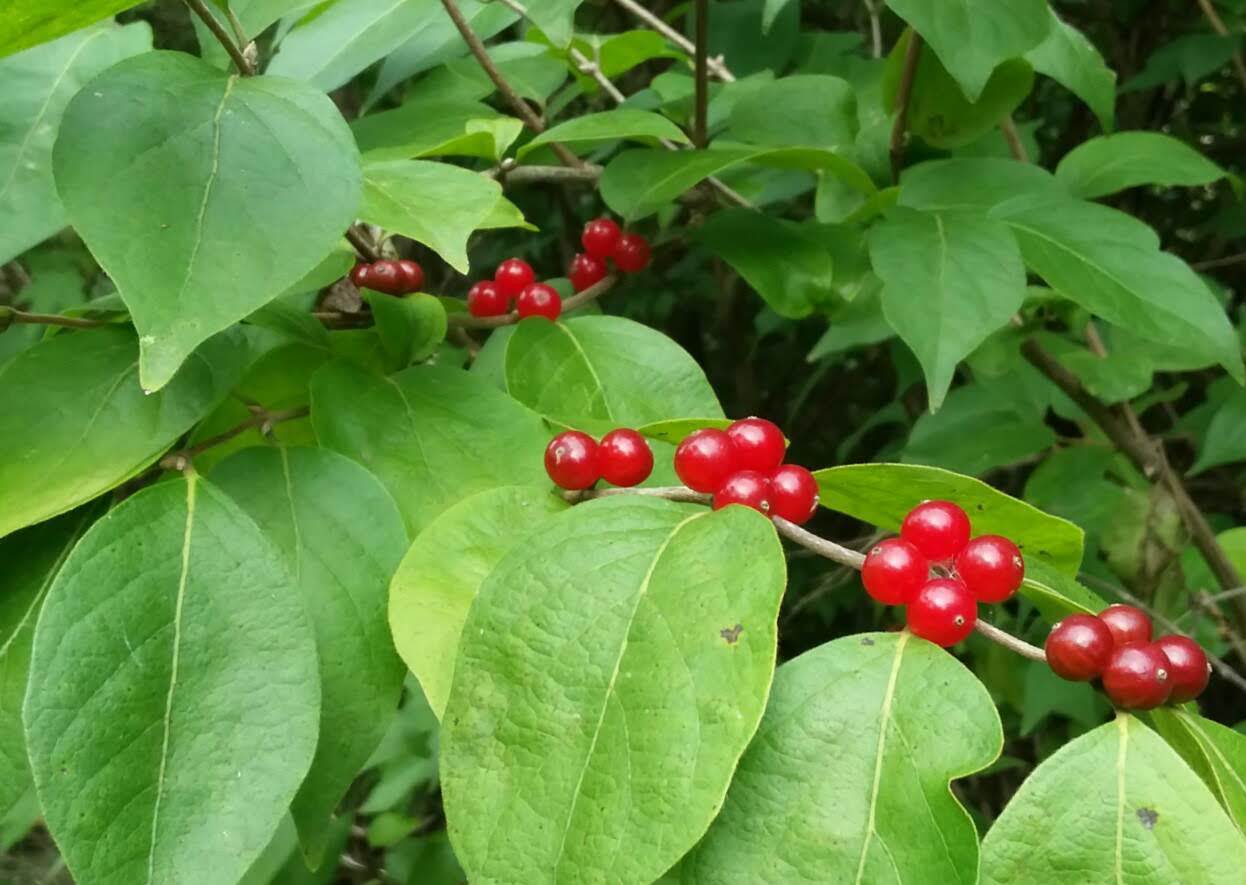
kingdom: Plantae
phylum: Tracheophyta
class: Magnoliopsida
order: Dipsacales
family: Caprifoliaceae
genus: Lonicera
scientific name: Lonicera maackii
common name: Amur honeysuckle
